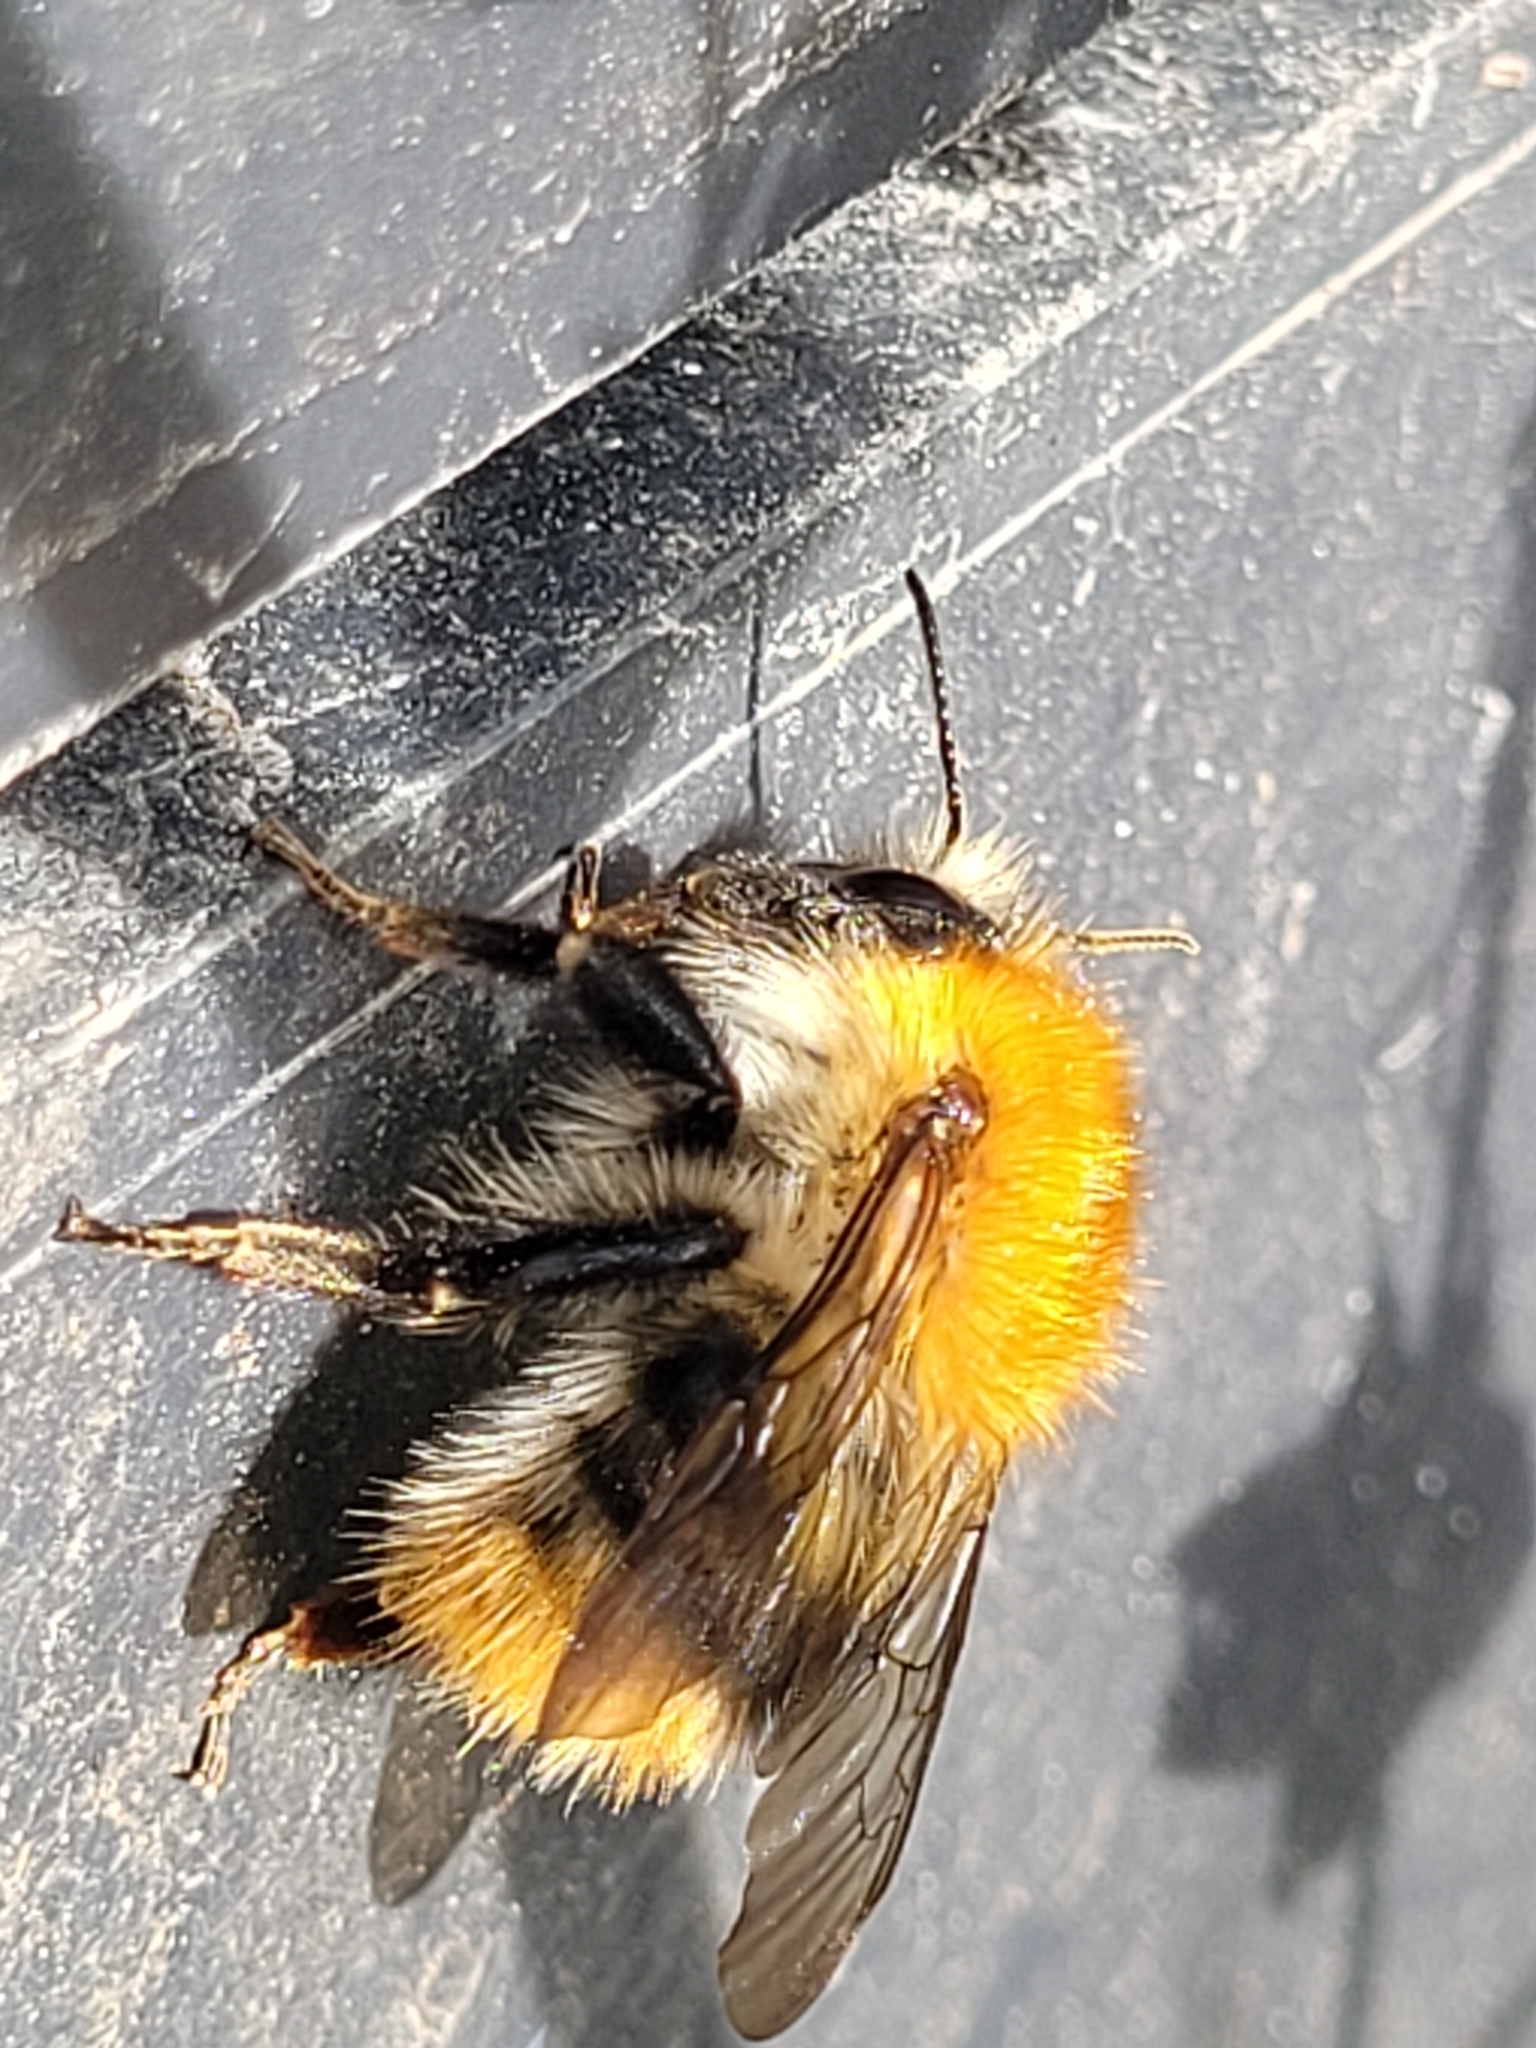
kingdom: Animalia
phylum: Arthropoda
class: Insecta
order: Hymenoptera
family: Apidae
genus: Bombus
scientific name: Bombus pascuorum
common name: Common carder bee
